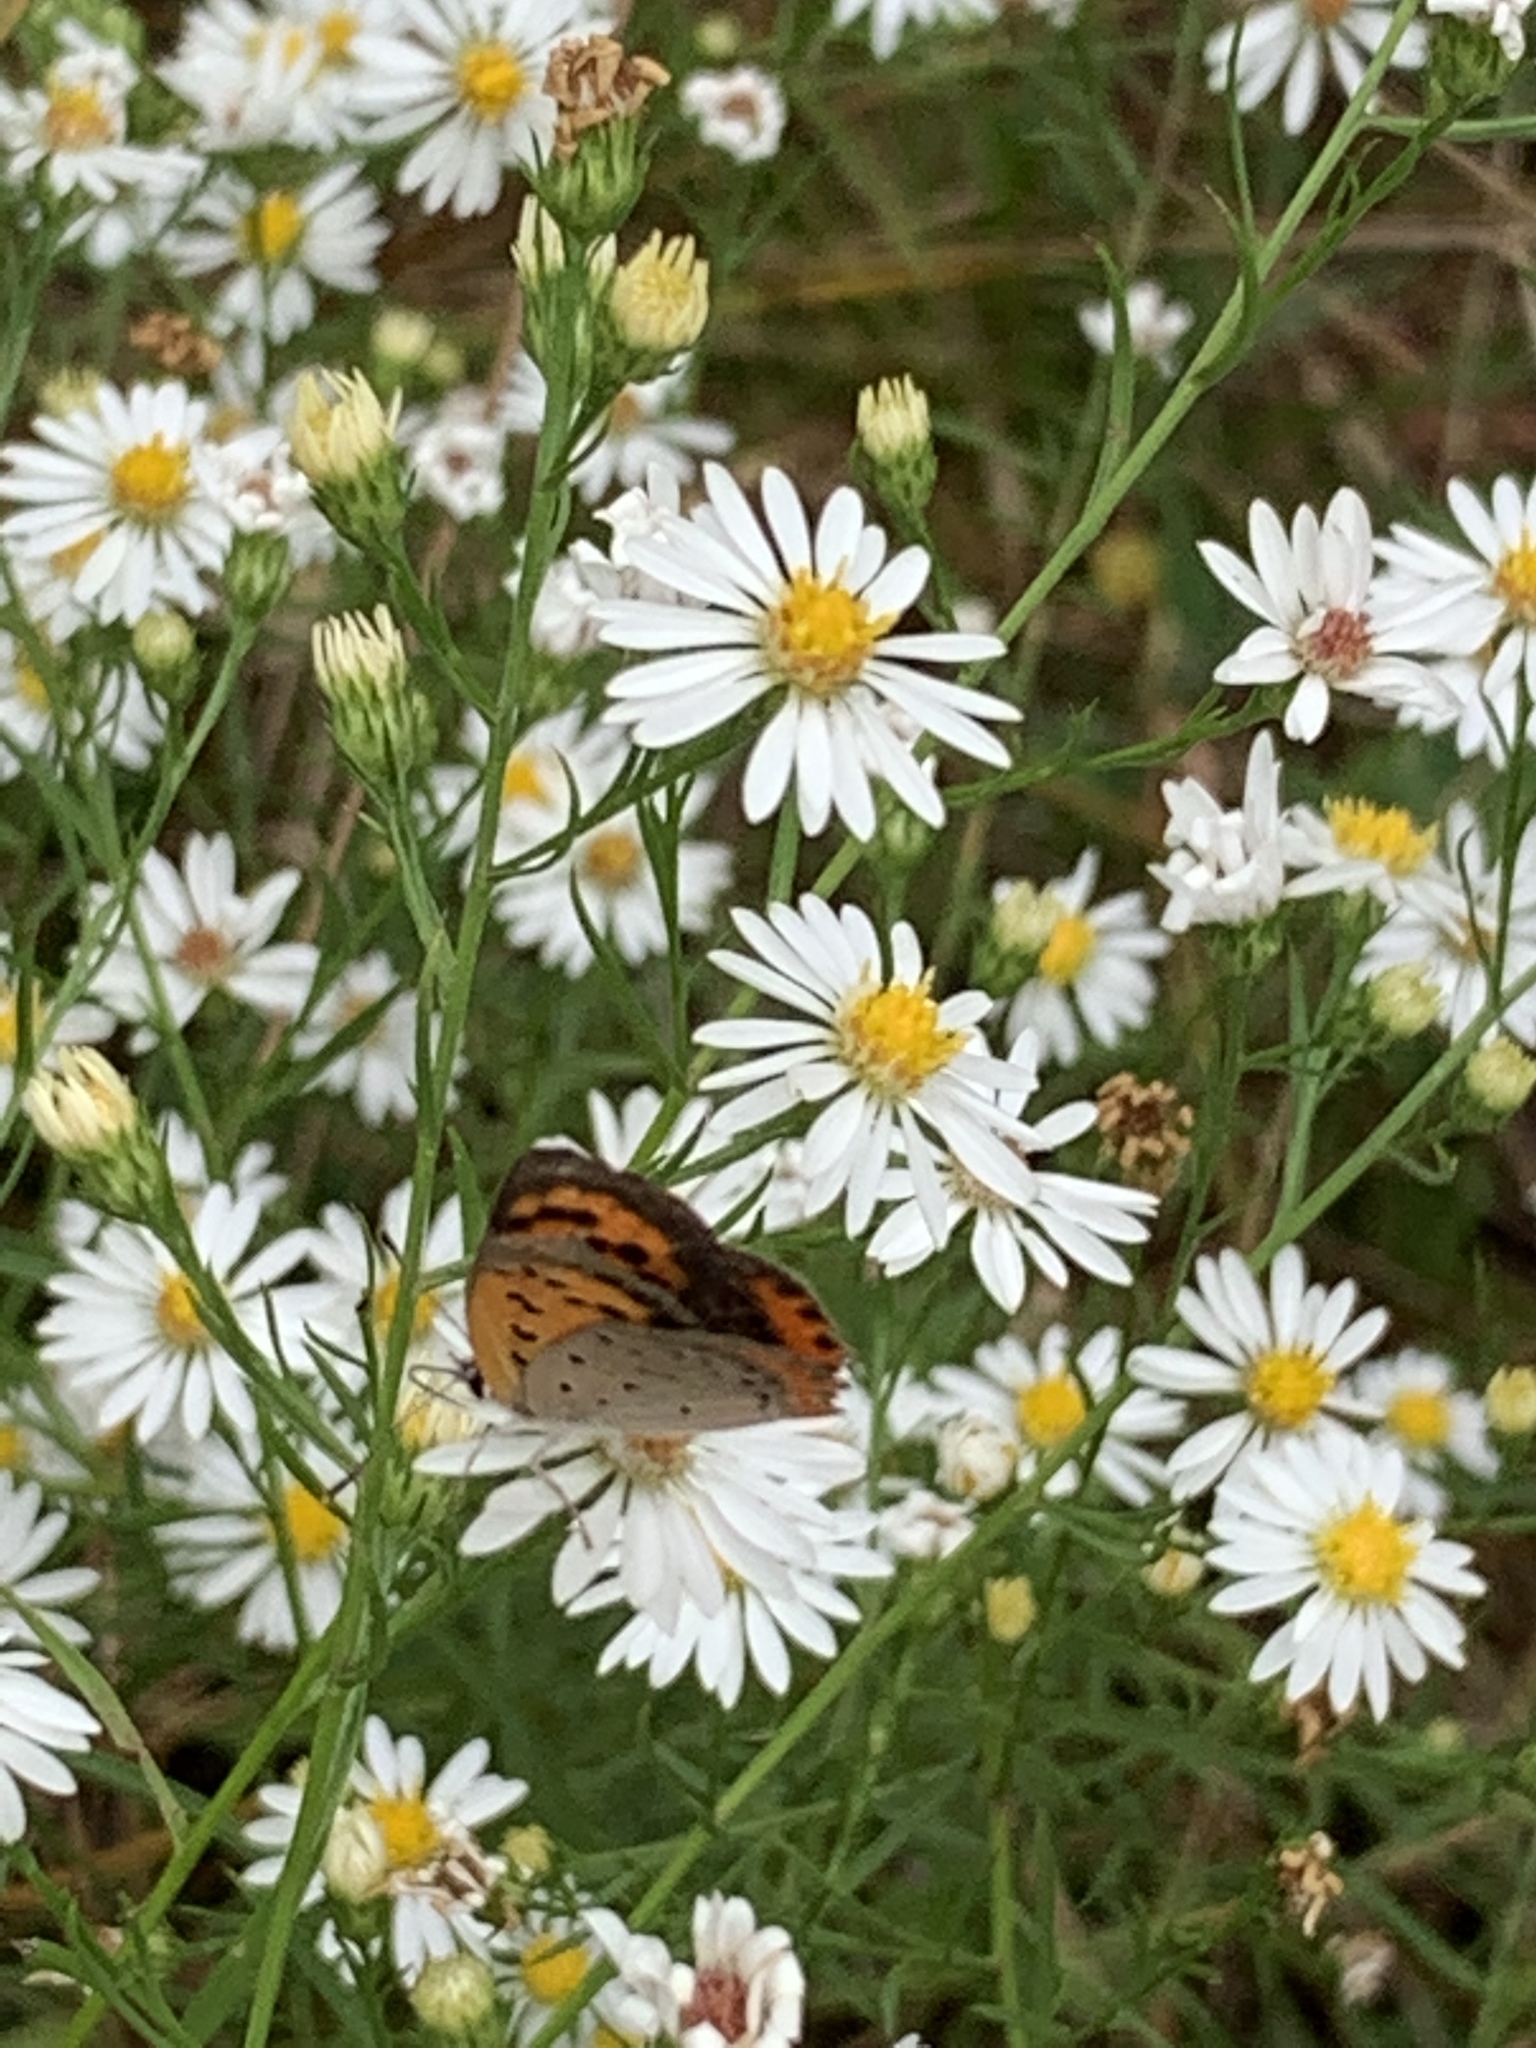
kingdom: Animalia
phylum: Arthropoda
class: Insecta
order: Lepidoptera
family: Lycaenidae
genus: Lycaena
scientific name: Lycaena hypophlaeas
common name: American copper
